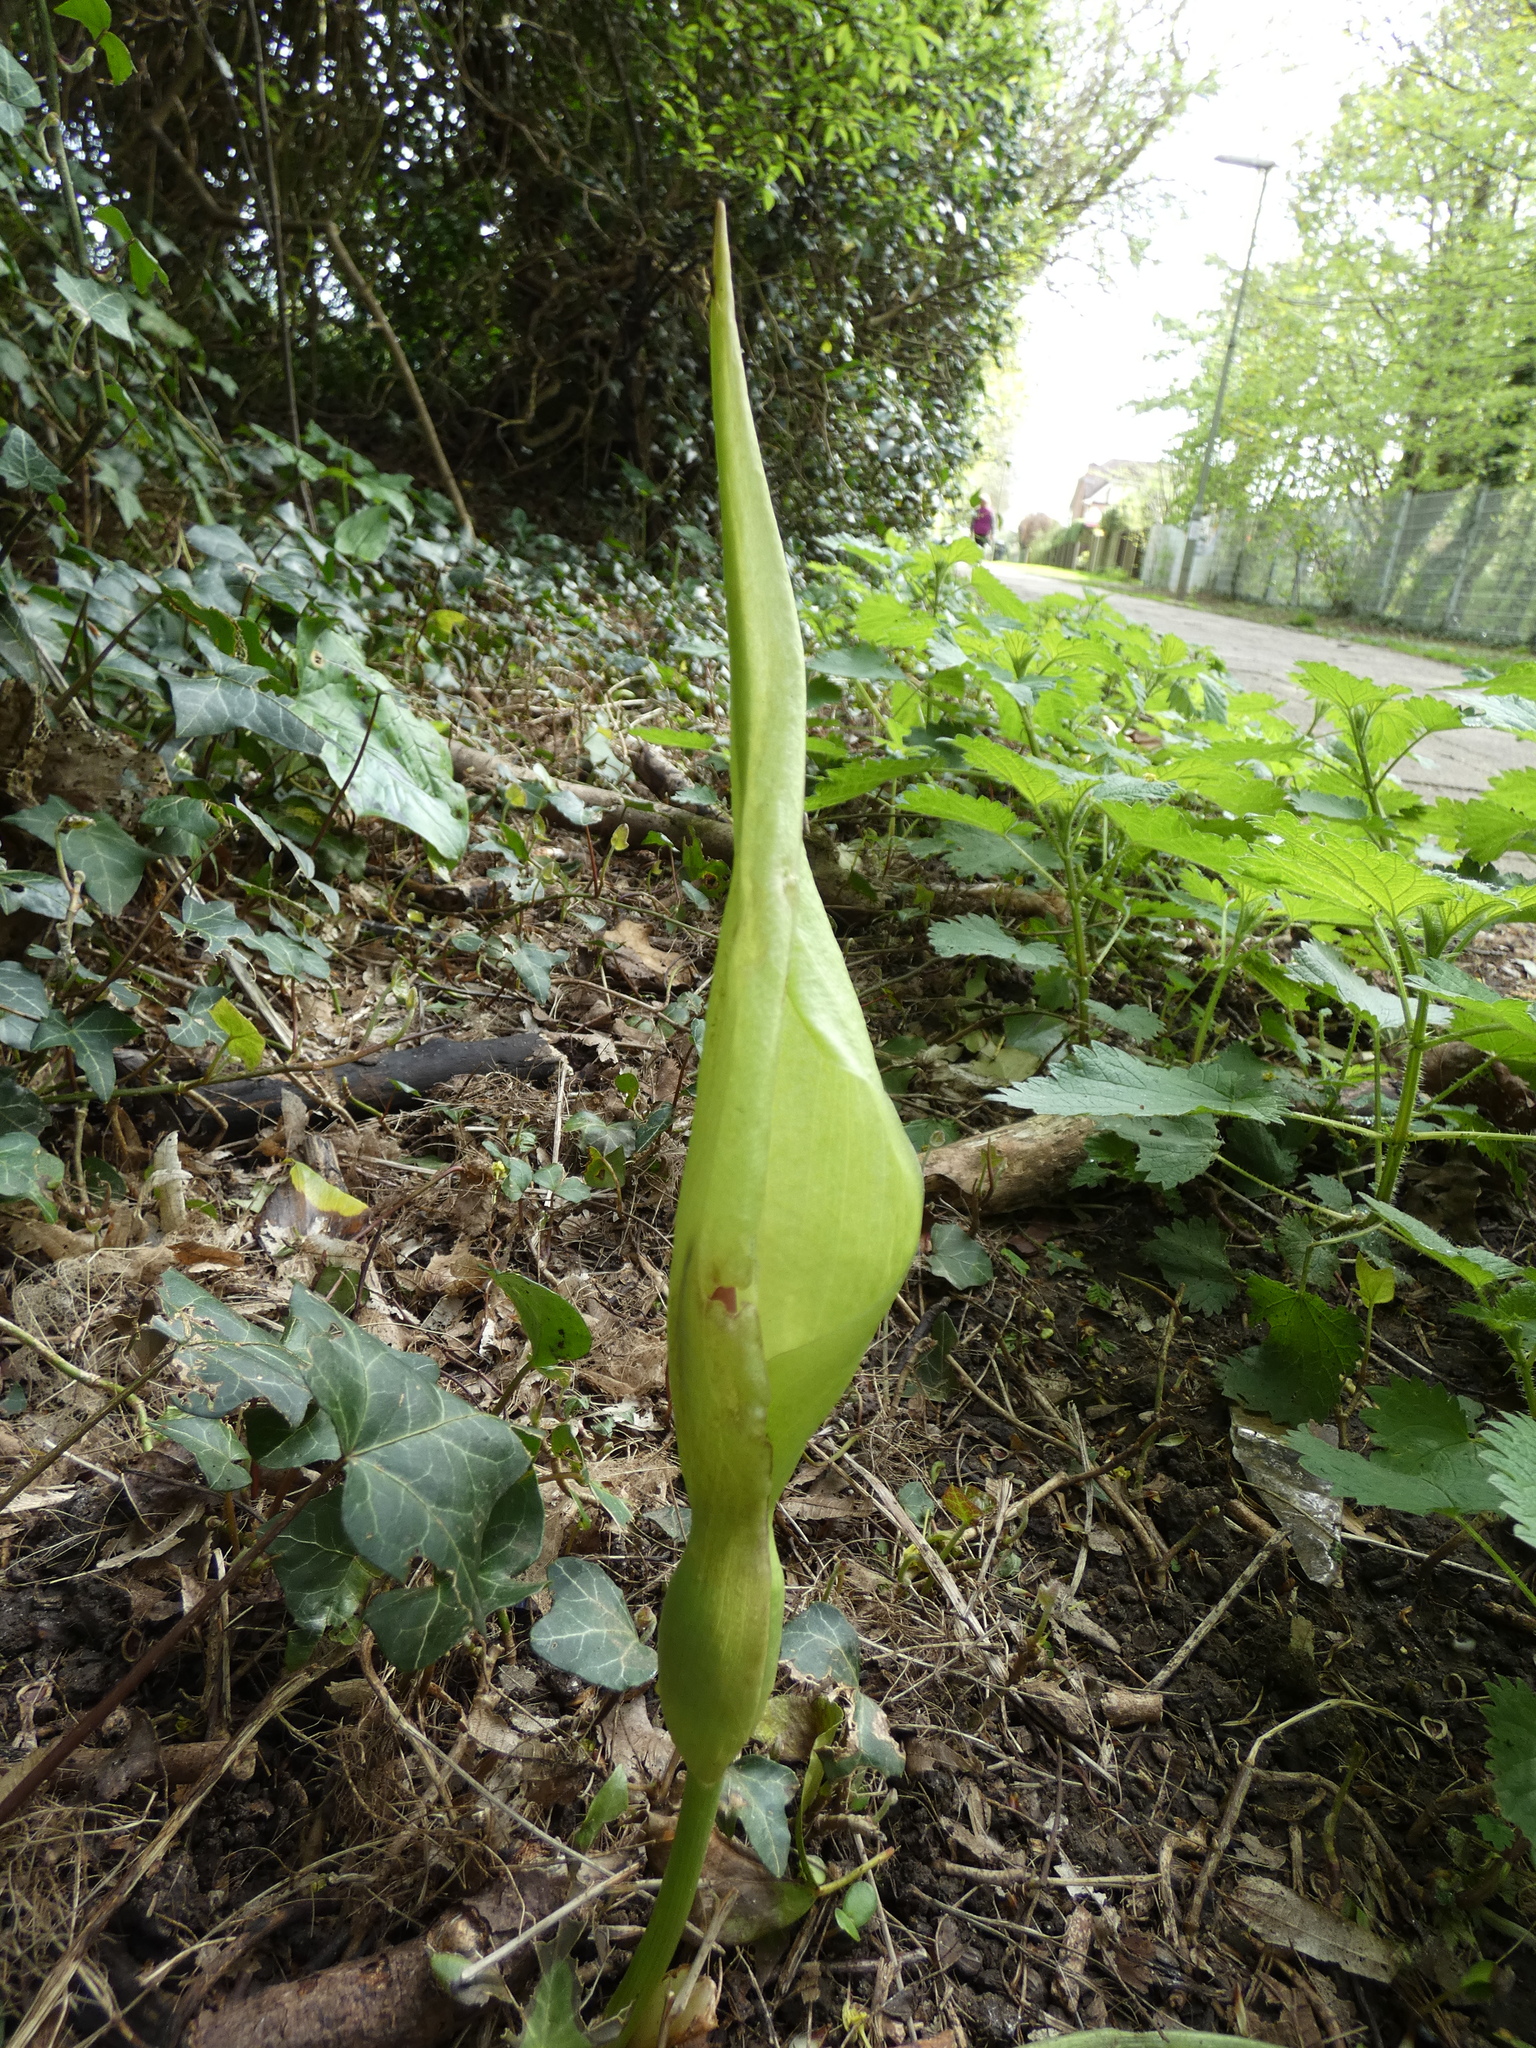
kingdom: Plantae
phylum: Tracheophyta
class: Liliopsida
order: Alismatales
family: Araceae
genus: Arum
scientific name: Arum maculatum
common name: Lords-and-ladies
